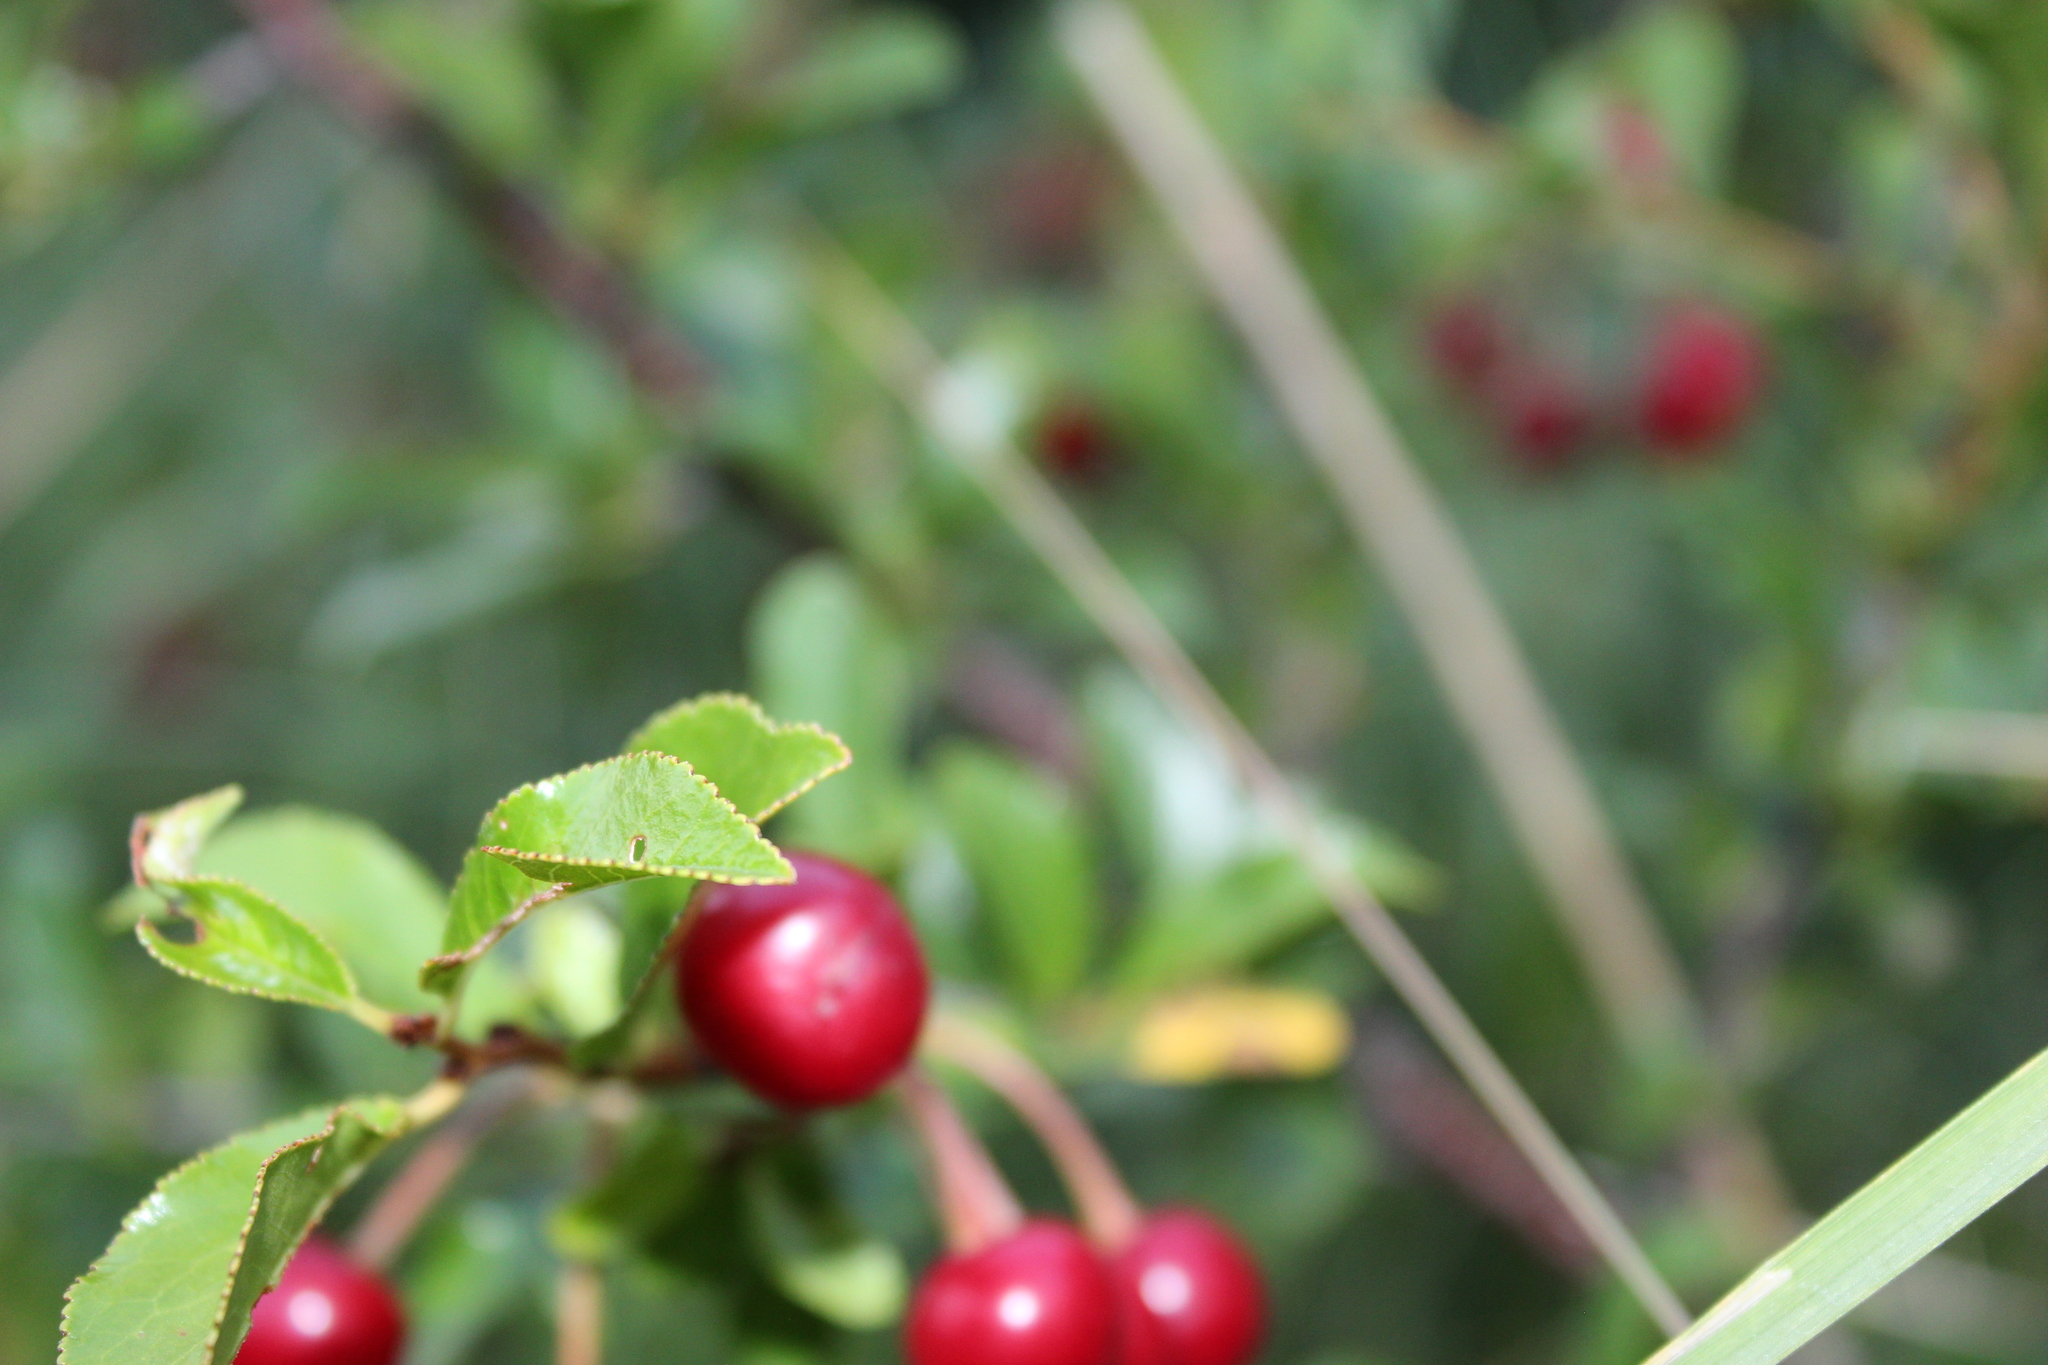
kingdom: Plantae
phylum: Tracheophyta
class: Magnoliopsida
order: Rosales
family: Rosaceae
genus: Prunus
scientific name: Prunus fruticosa
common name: European dwarf cherry
